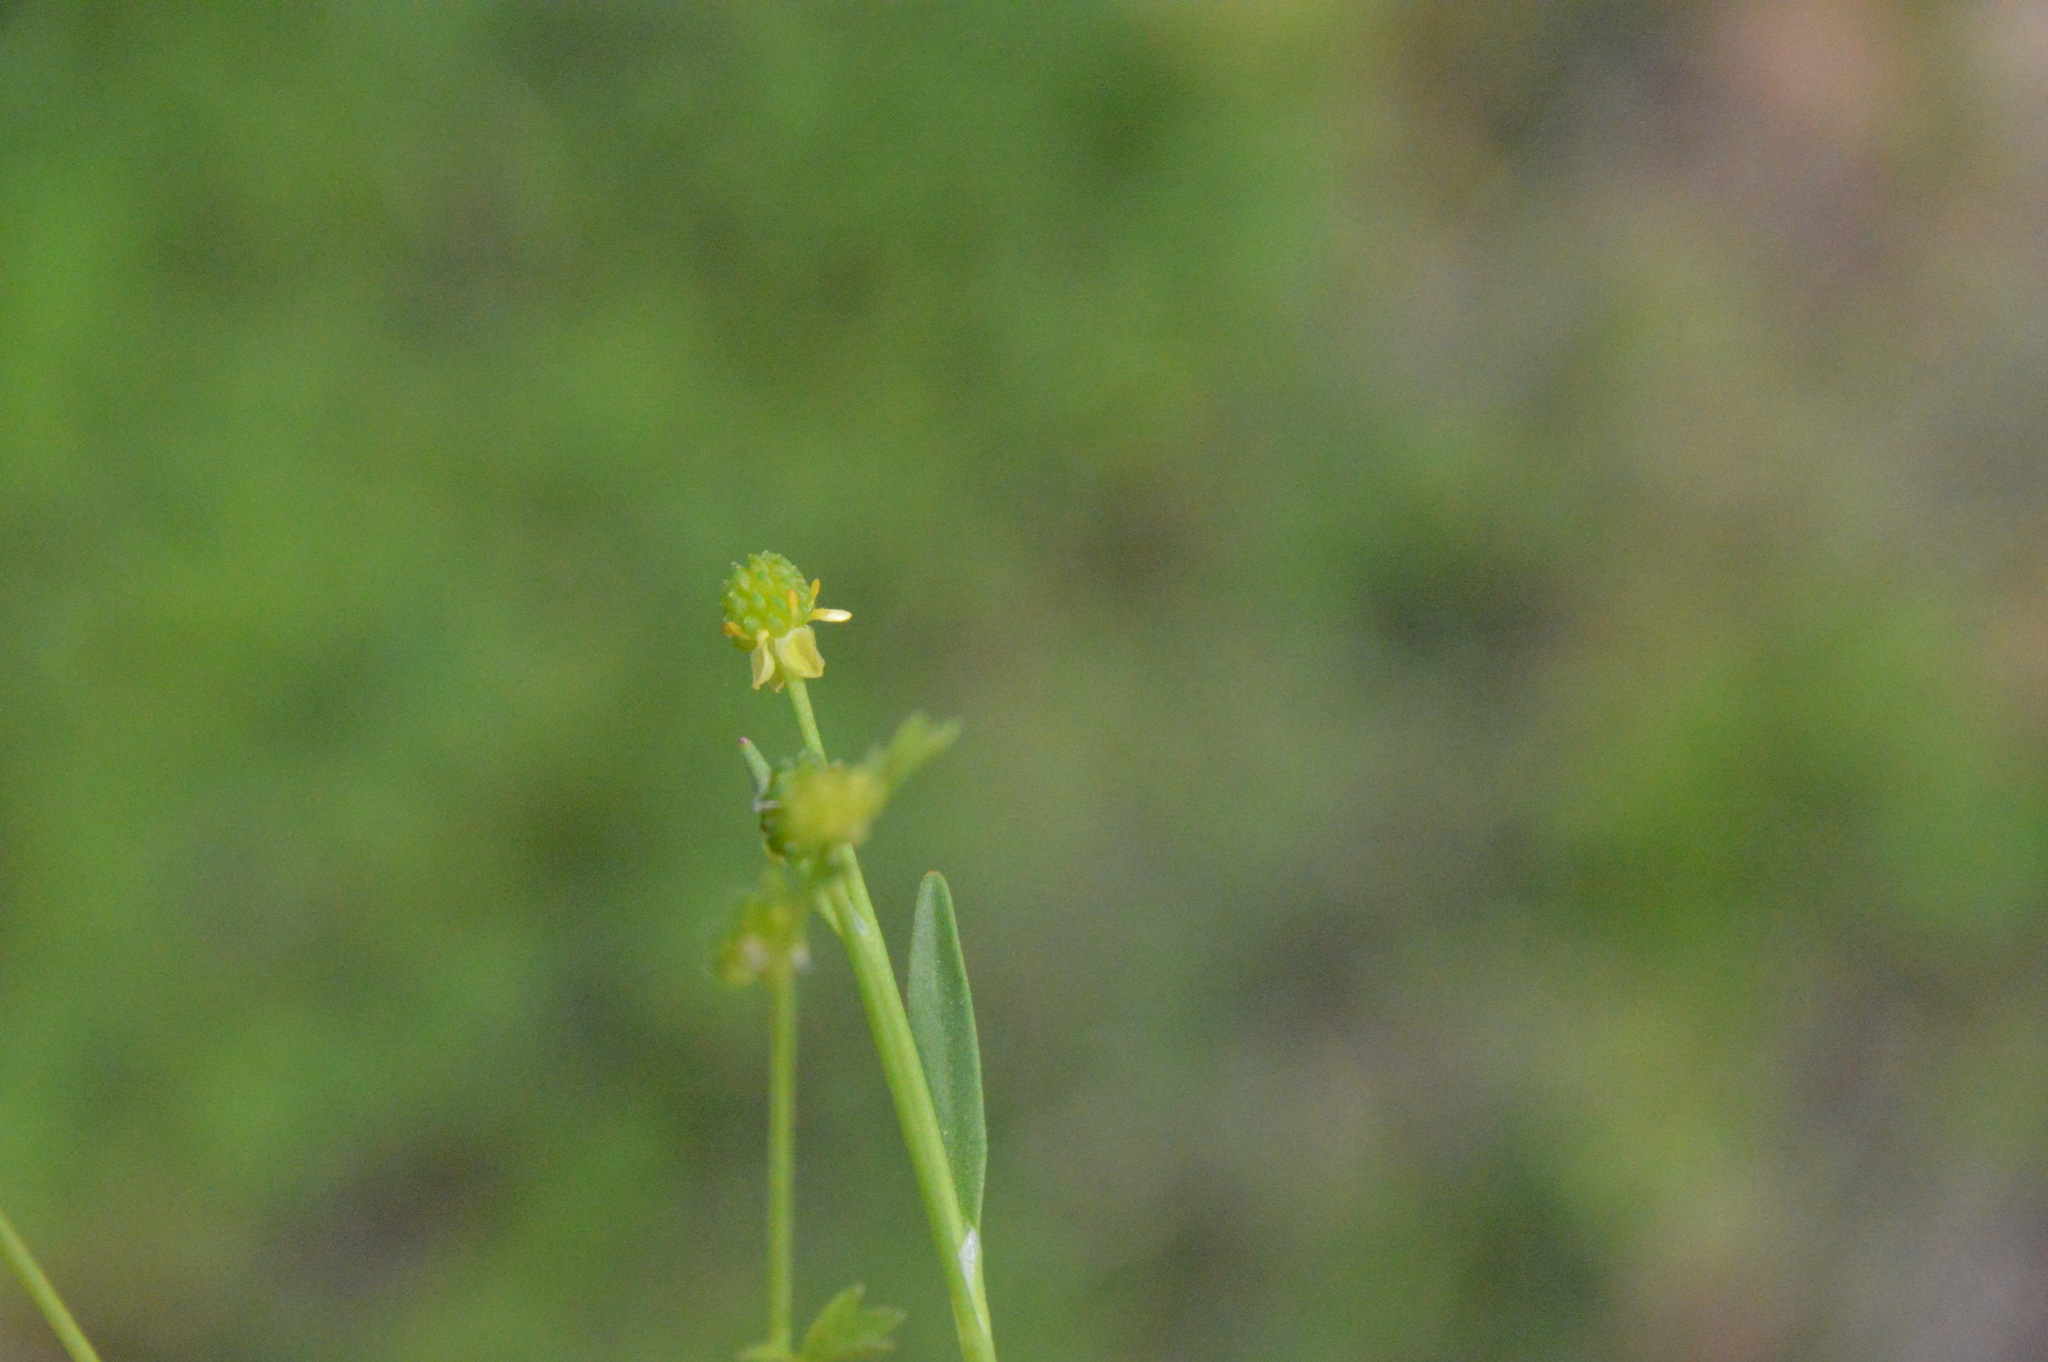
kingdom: Plantae
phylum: Tracheophyta
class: Magnoliopsida
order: Ranunculales
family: Ranunculaceae
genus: Ranunculus
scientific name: Ranunculus platensis
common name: Prairie buttercup
